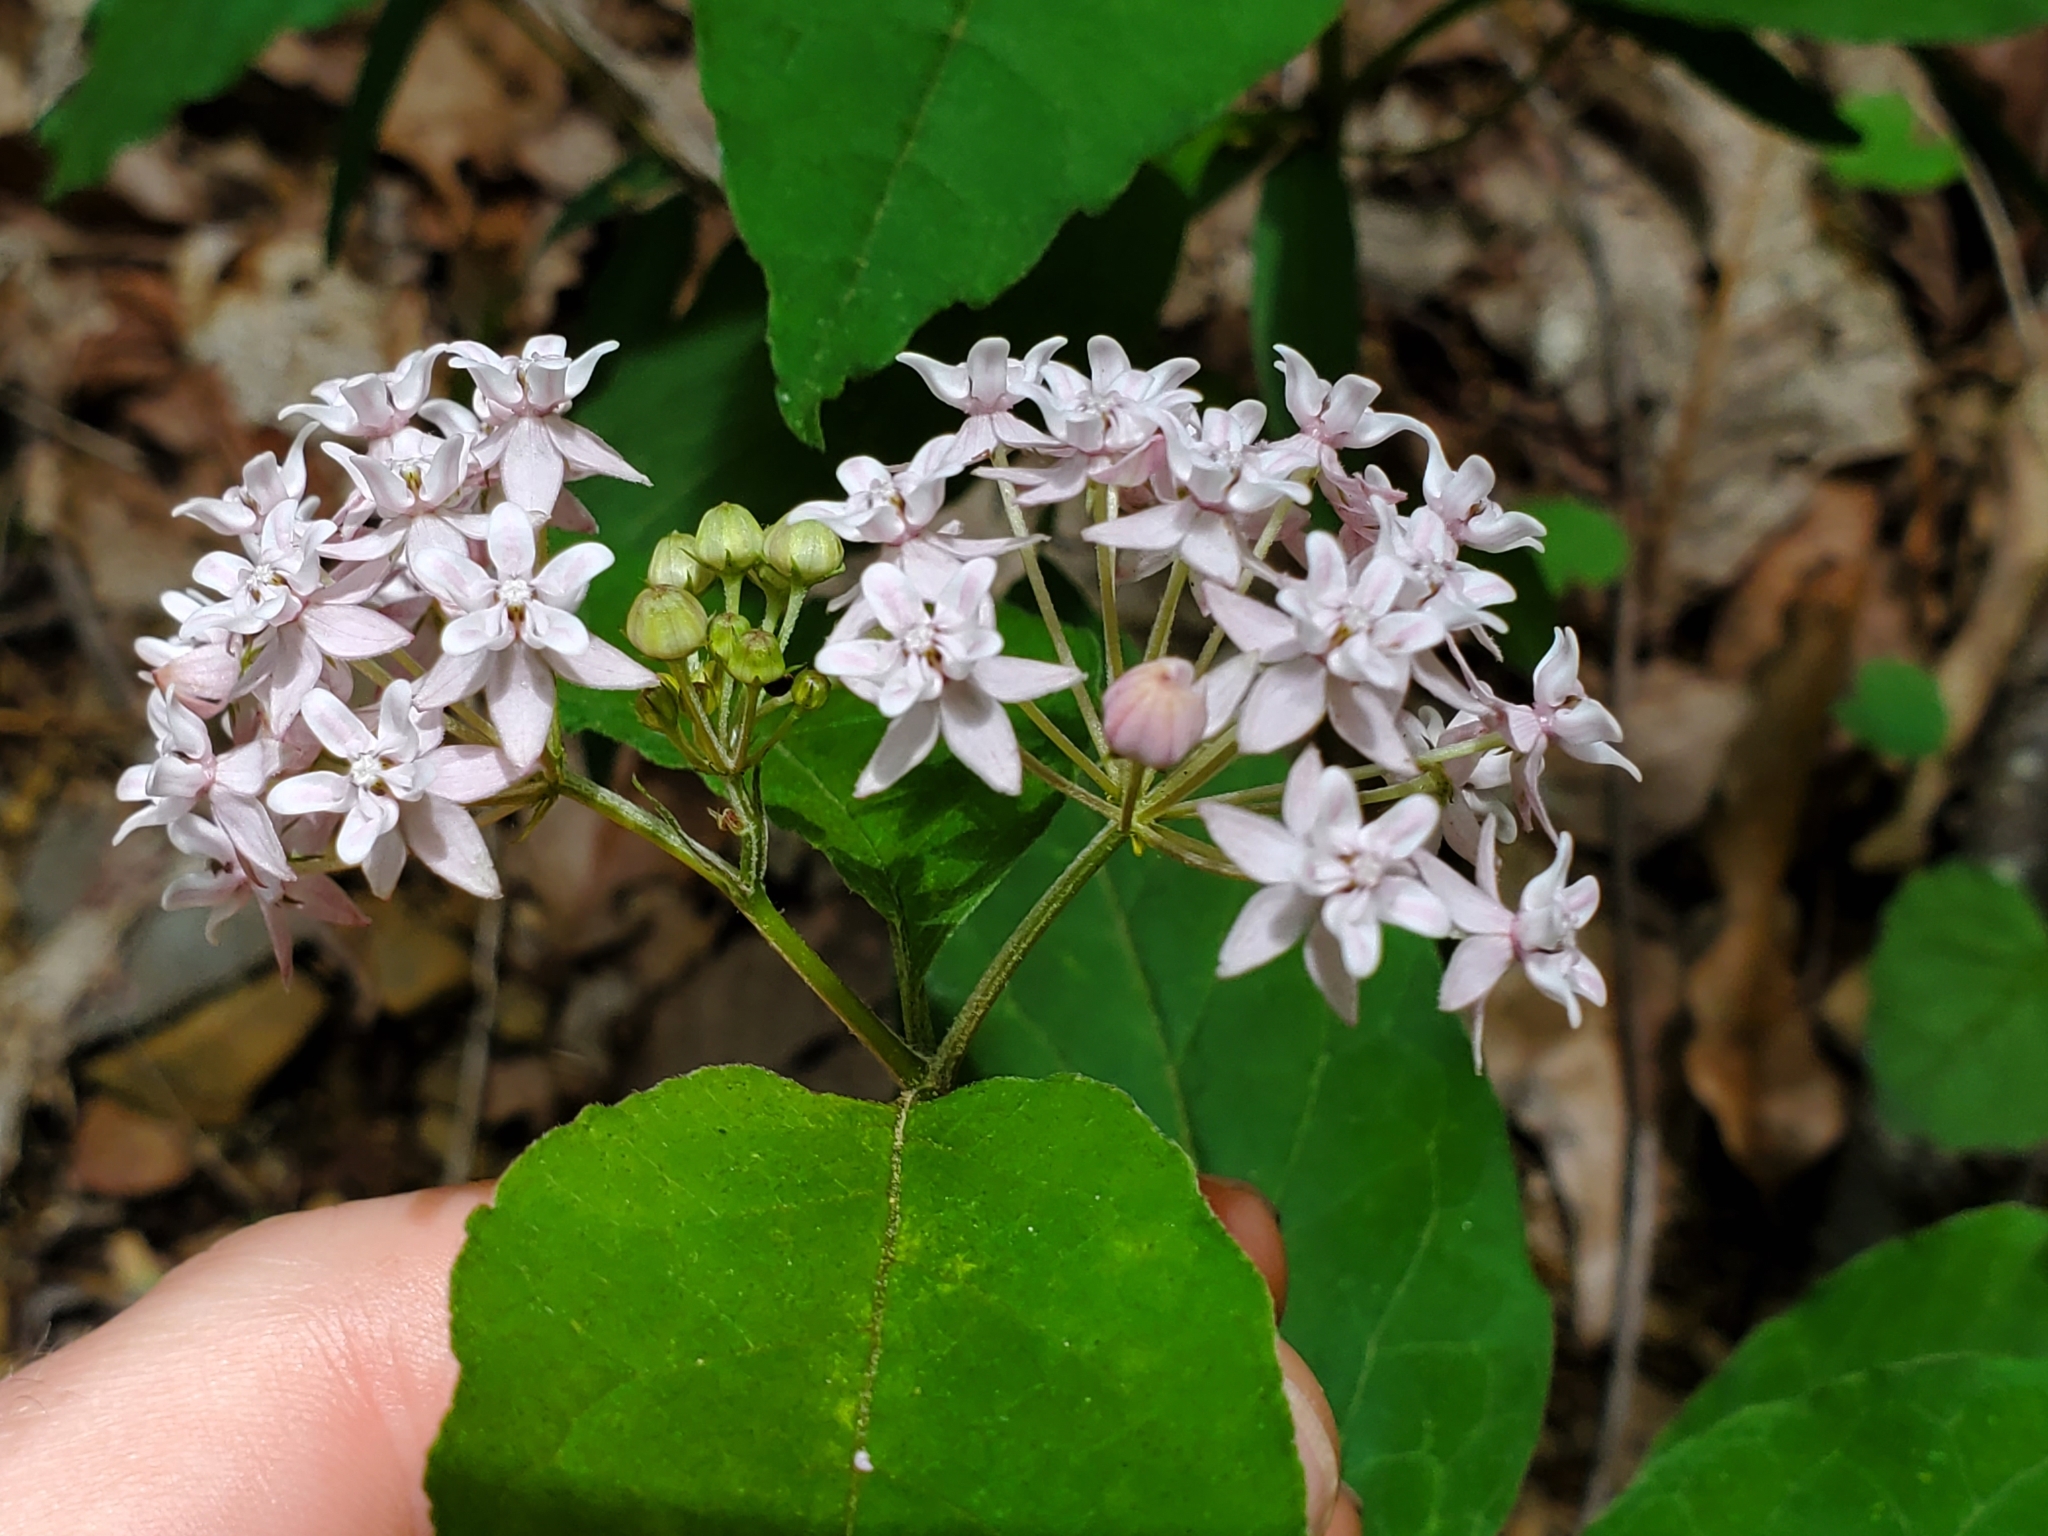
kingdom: Plantae
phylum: Tracheophyta
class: Magnoliopsida
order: Gentianales
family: Apocynaceae
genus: Asclepias
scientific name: Asclepias quadrifolia
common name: Whorled milkweed
